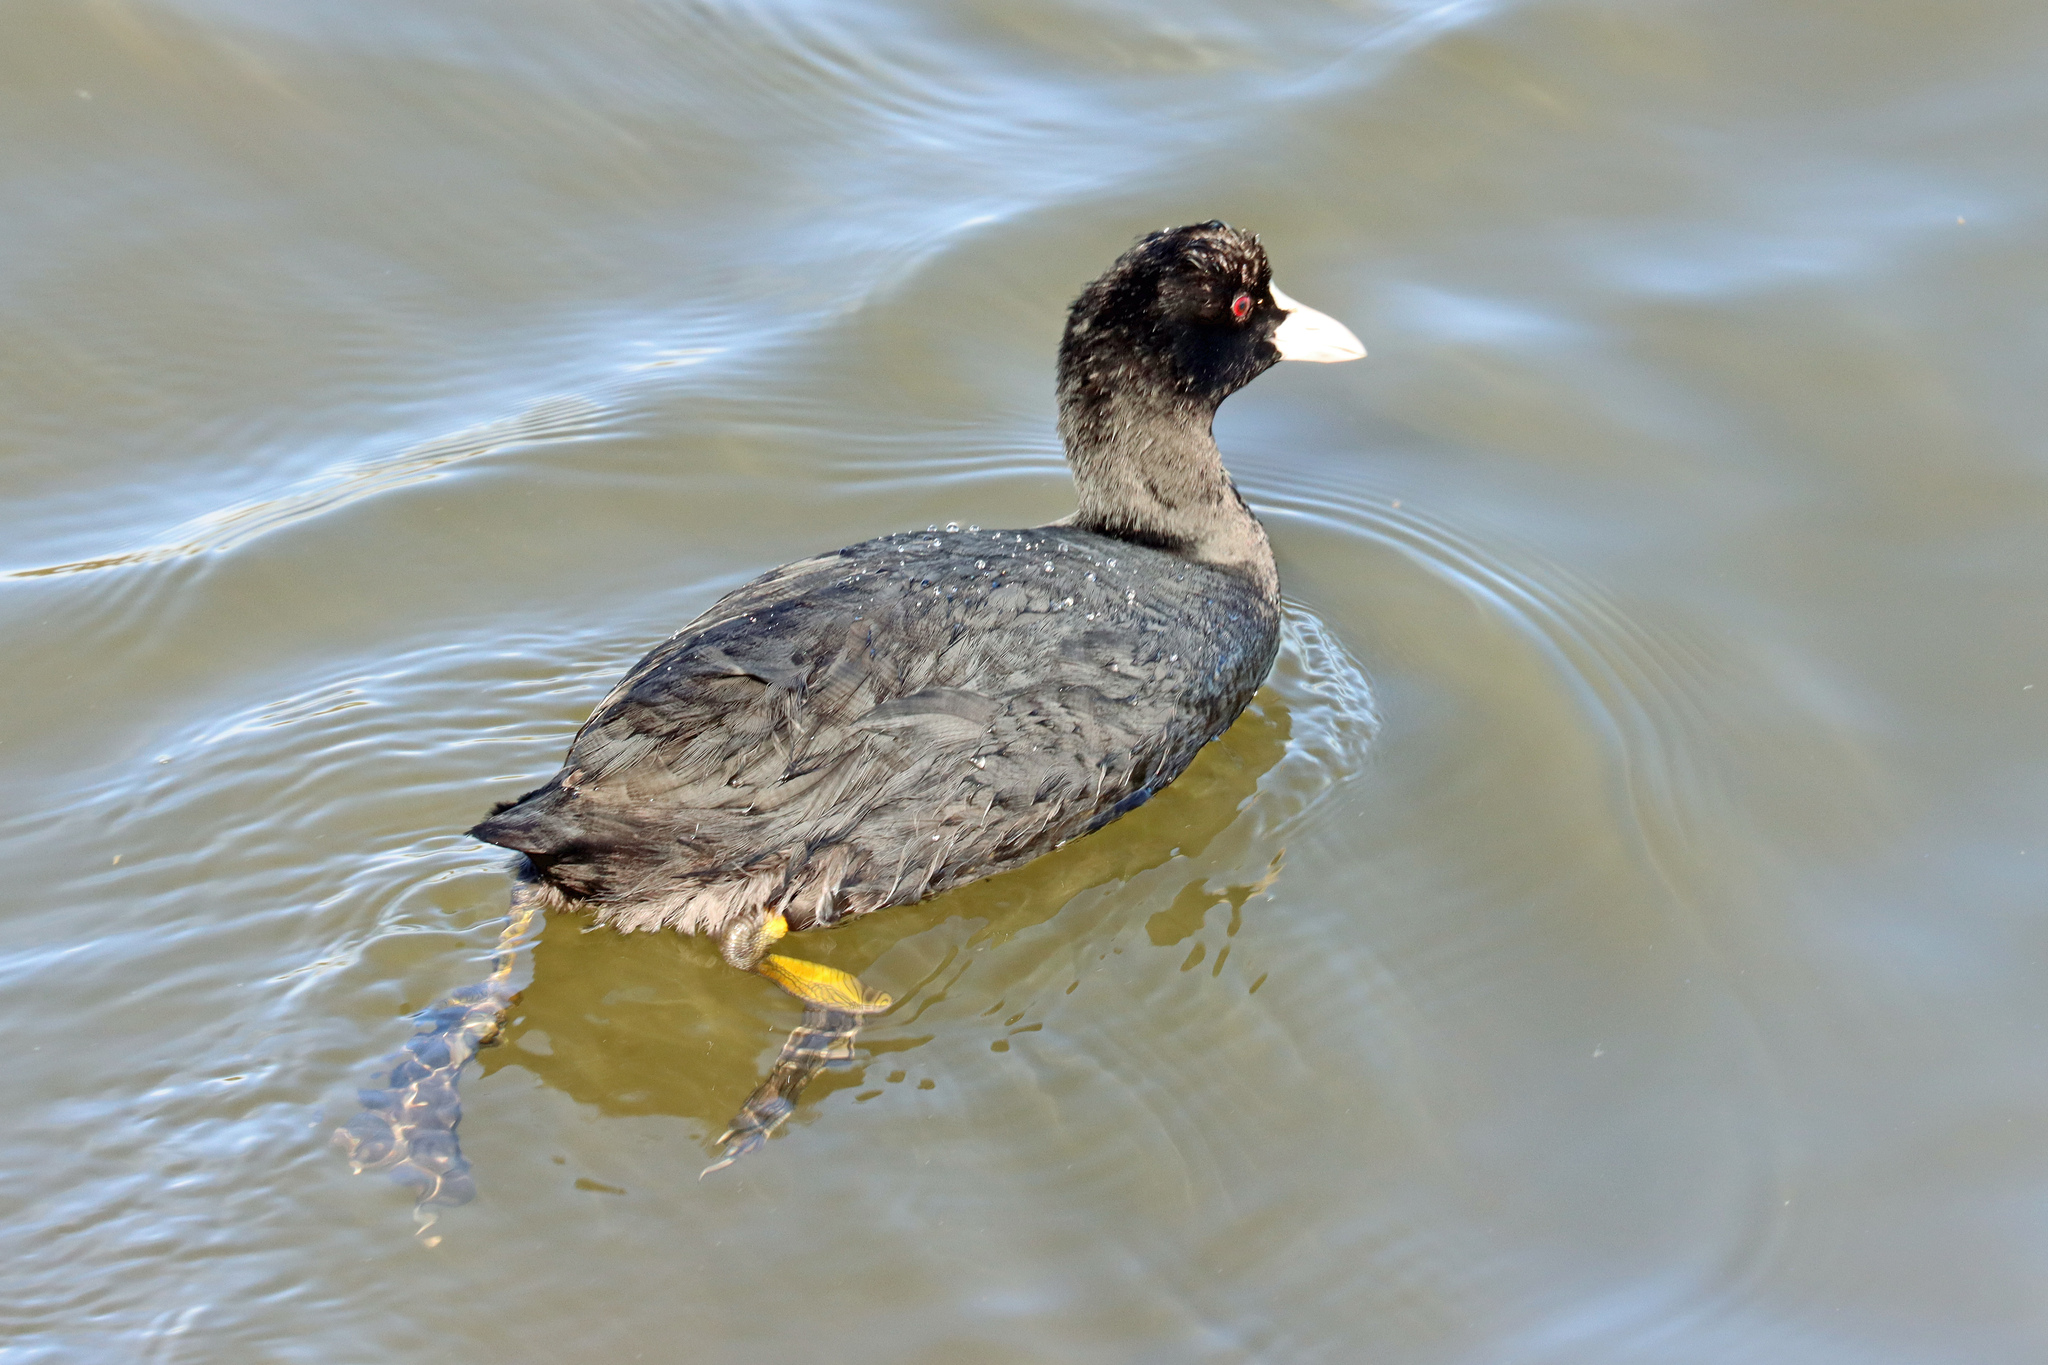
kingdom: Animalia
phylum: Chordata
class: Aves
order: Gruiformes
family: Rallidae
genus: Fulica
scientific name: Fulica atra
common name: Eurasian coot
